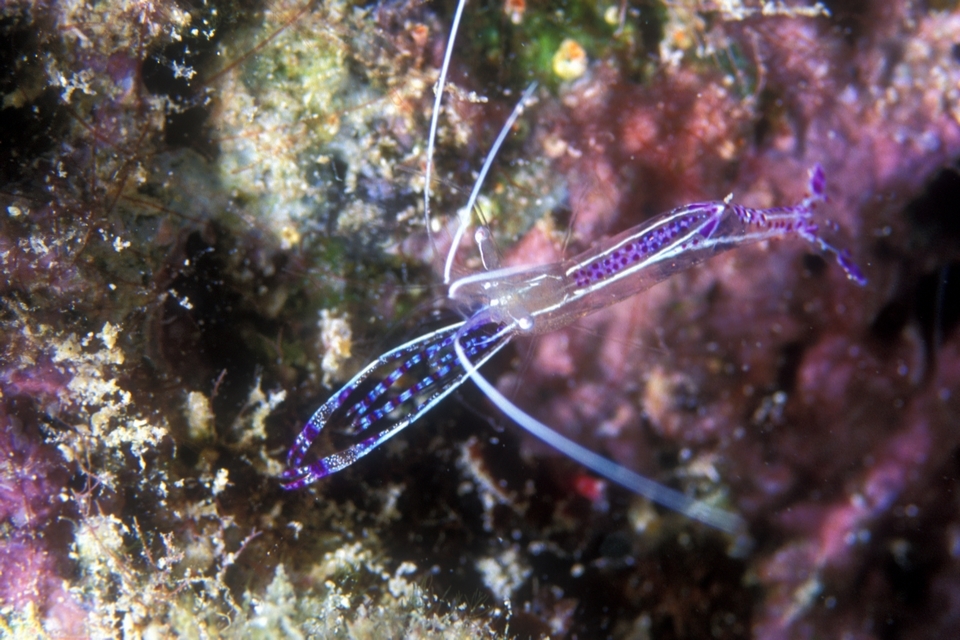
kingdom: Animalia
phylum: Arthropoda
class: Malacostraca
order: Decapoda
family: Palaemonidae
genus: Ancylomenes
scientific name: Ancylomenes pedersoni
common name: Pederson's cleaning shrimp
